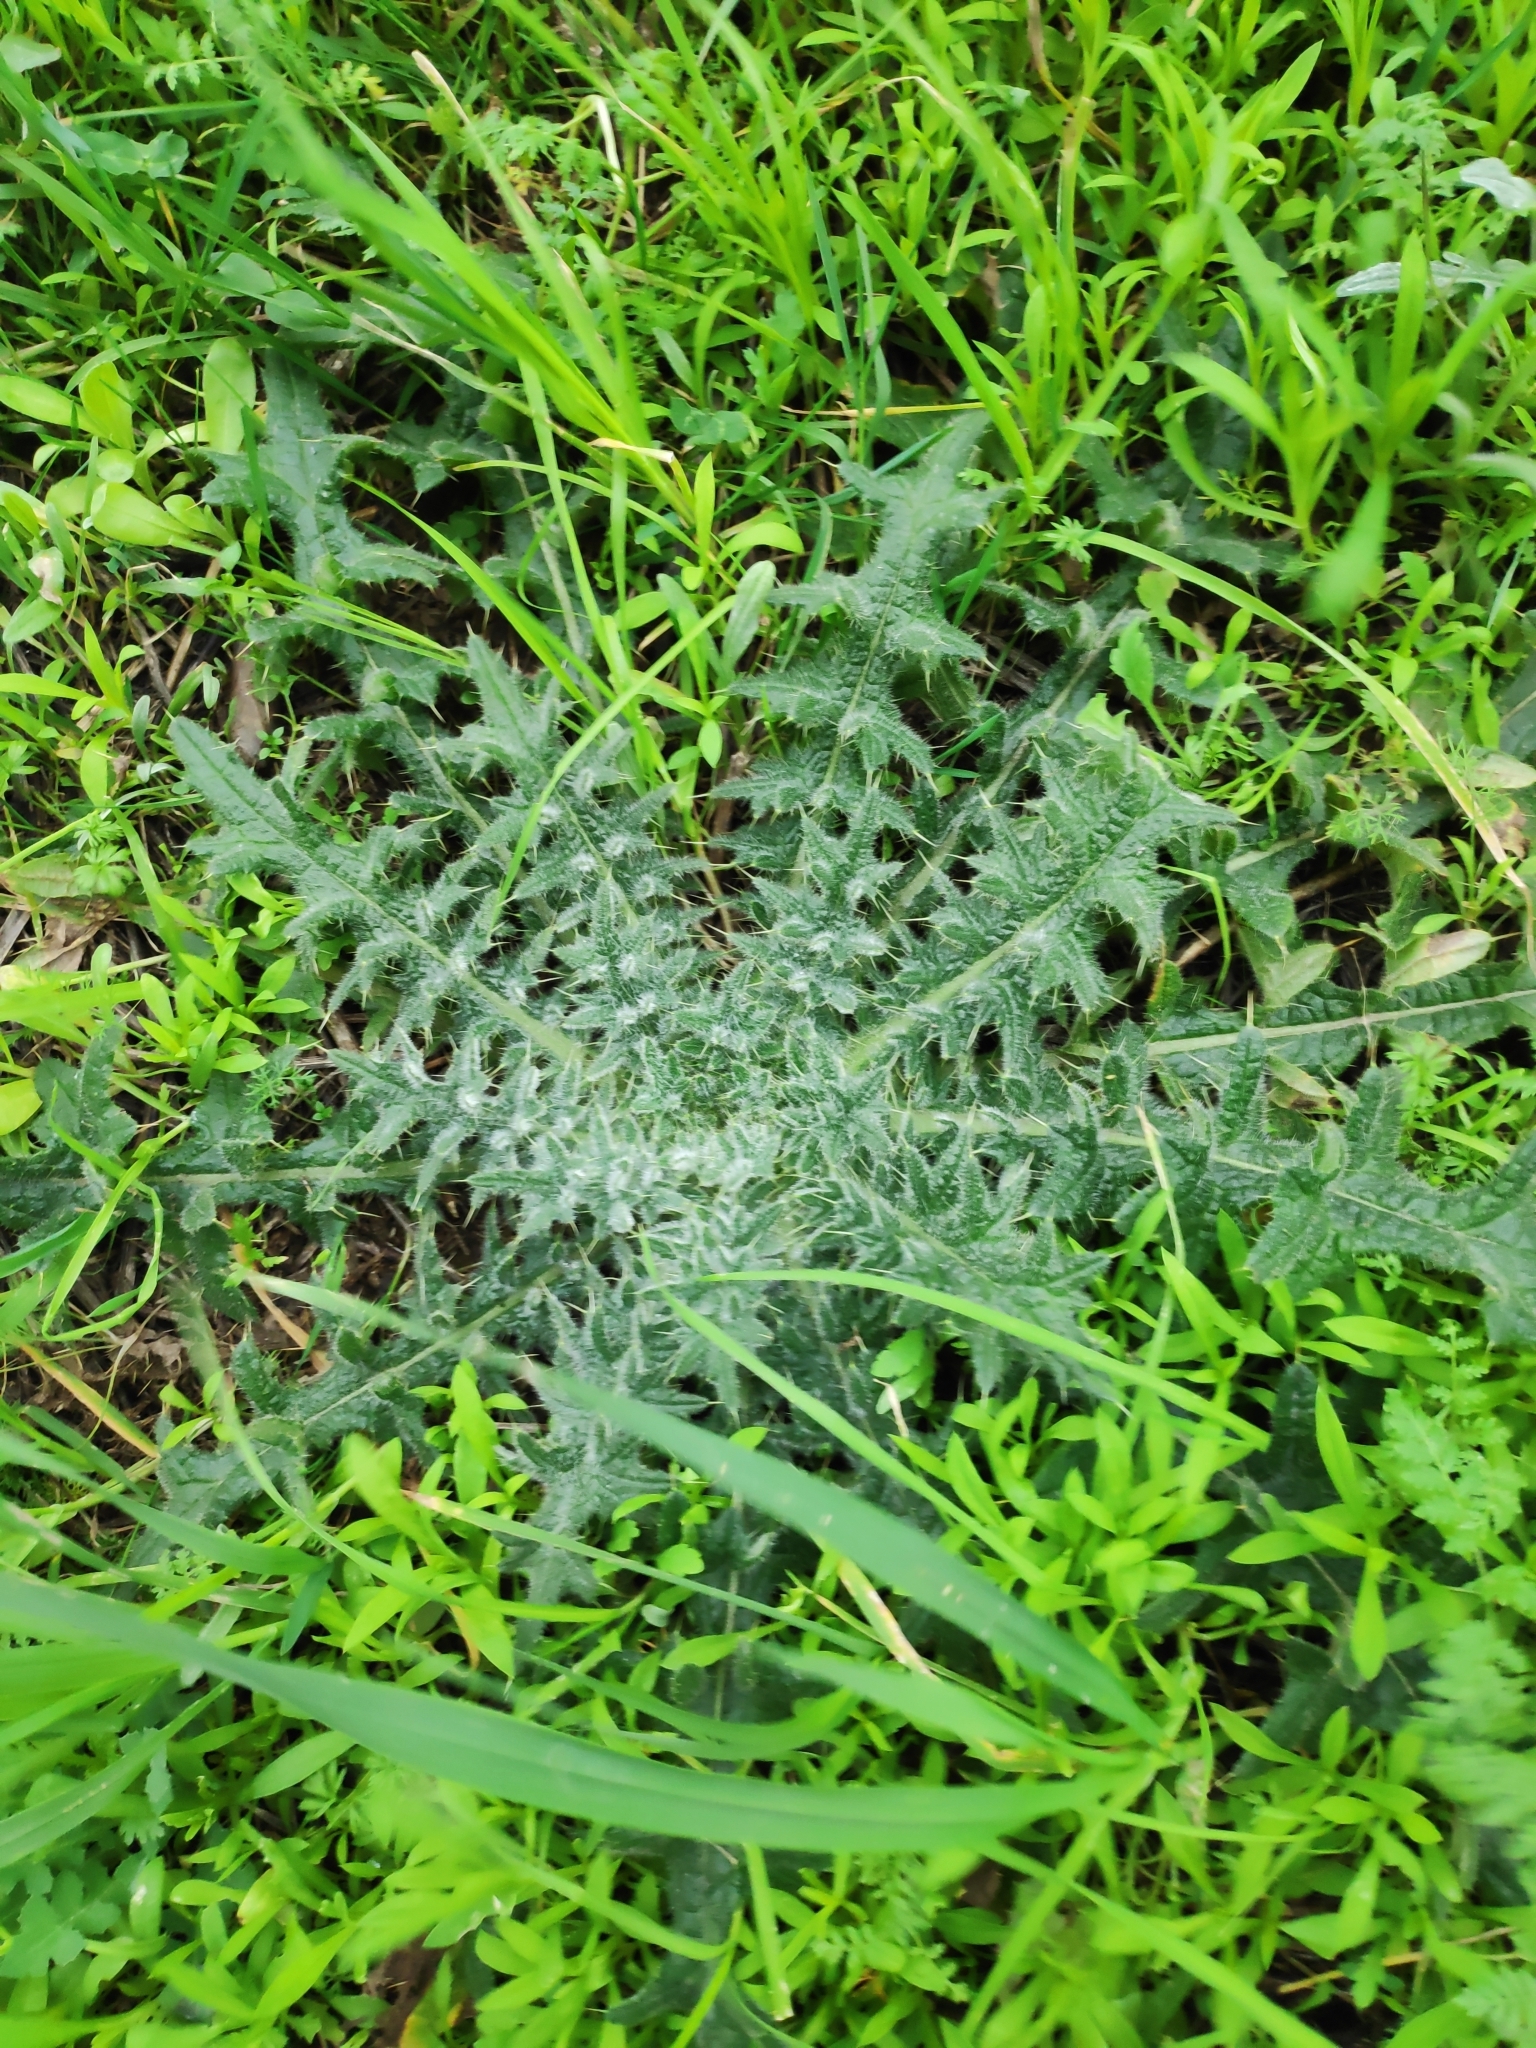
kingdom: Plantae
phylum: Tracheophyta
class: Magnoliopsida
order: Asterales
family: Asteraceae
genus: Cirsium
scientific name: Cirsium vulgare
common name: Bull thistle
